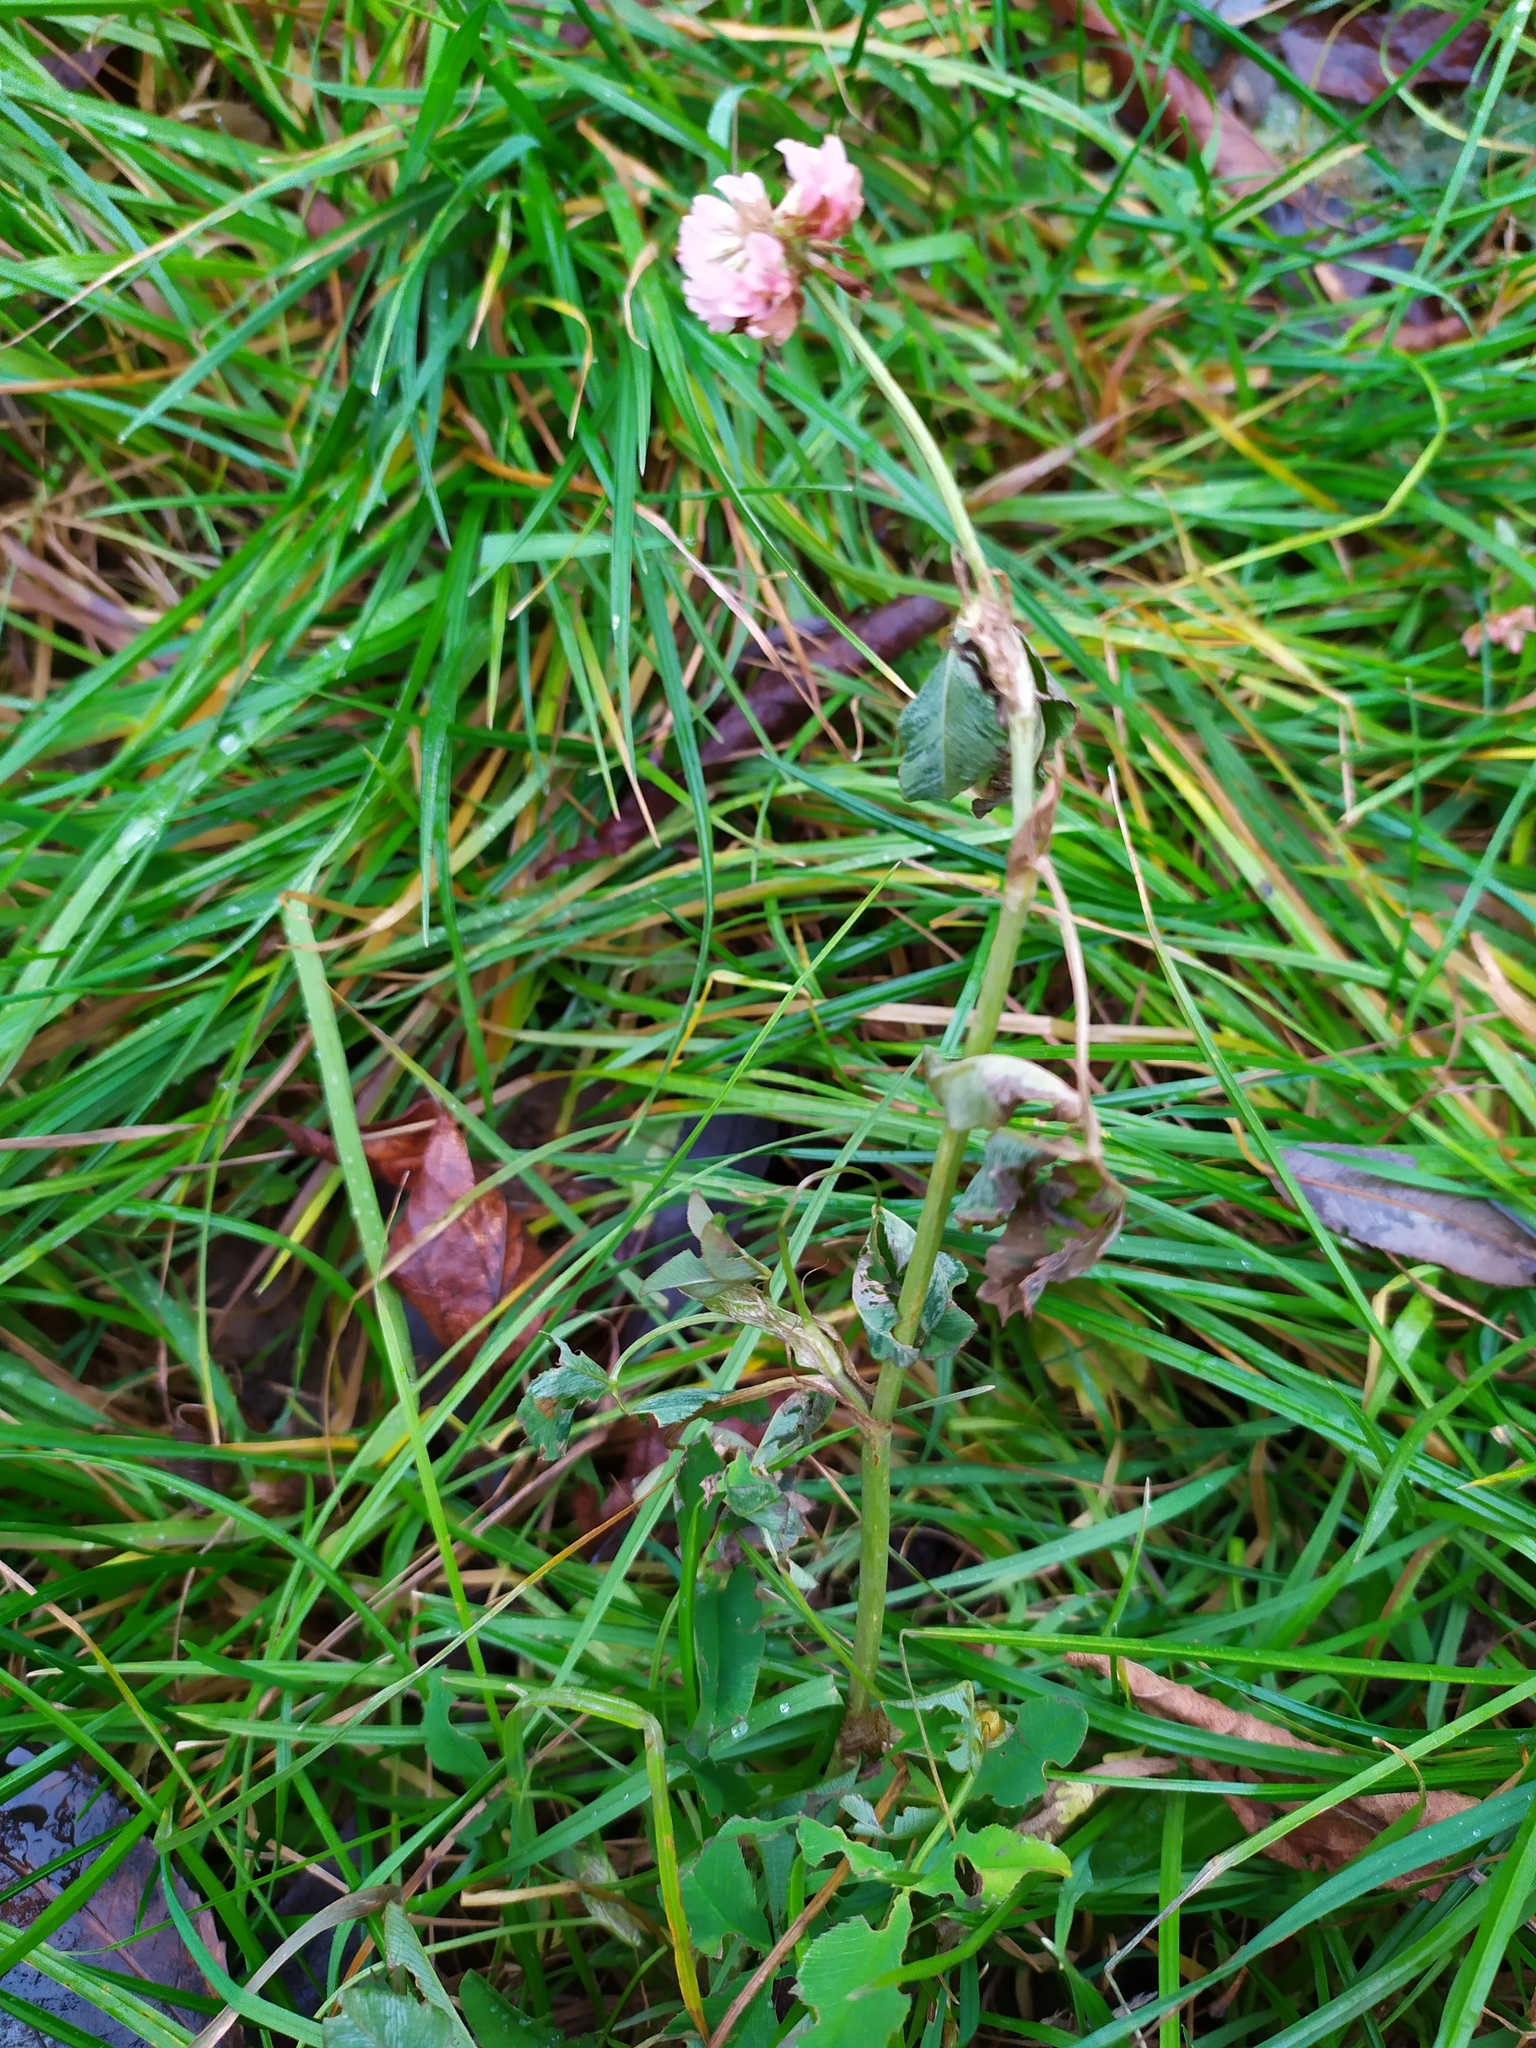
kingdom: Plantae
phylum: Tracheophyta
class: Magnoliopsida
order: Fabales
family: Fabaceae
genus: Trifolium
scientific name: Trifolium hybridum
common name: Alsike clover
